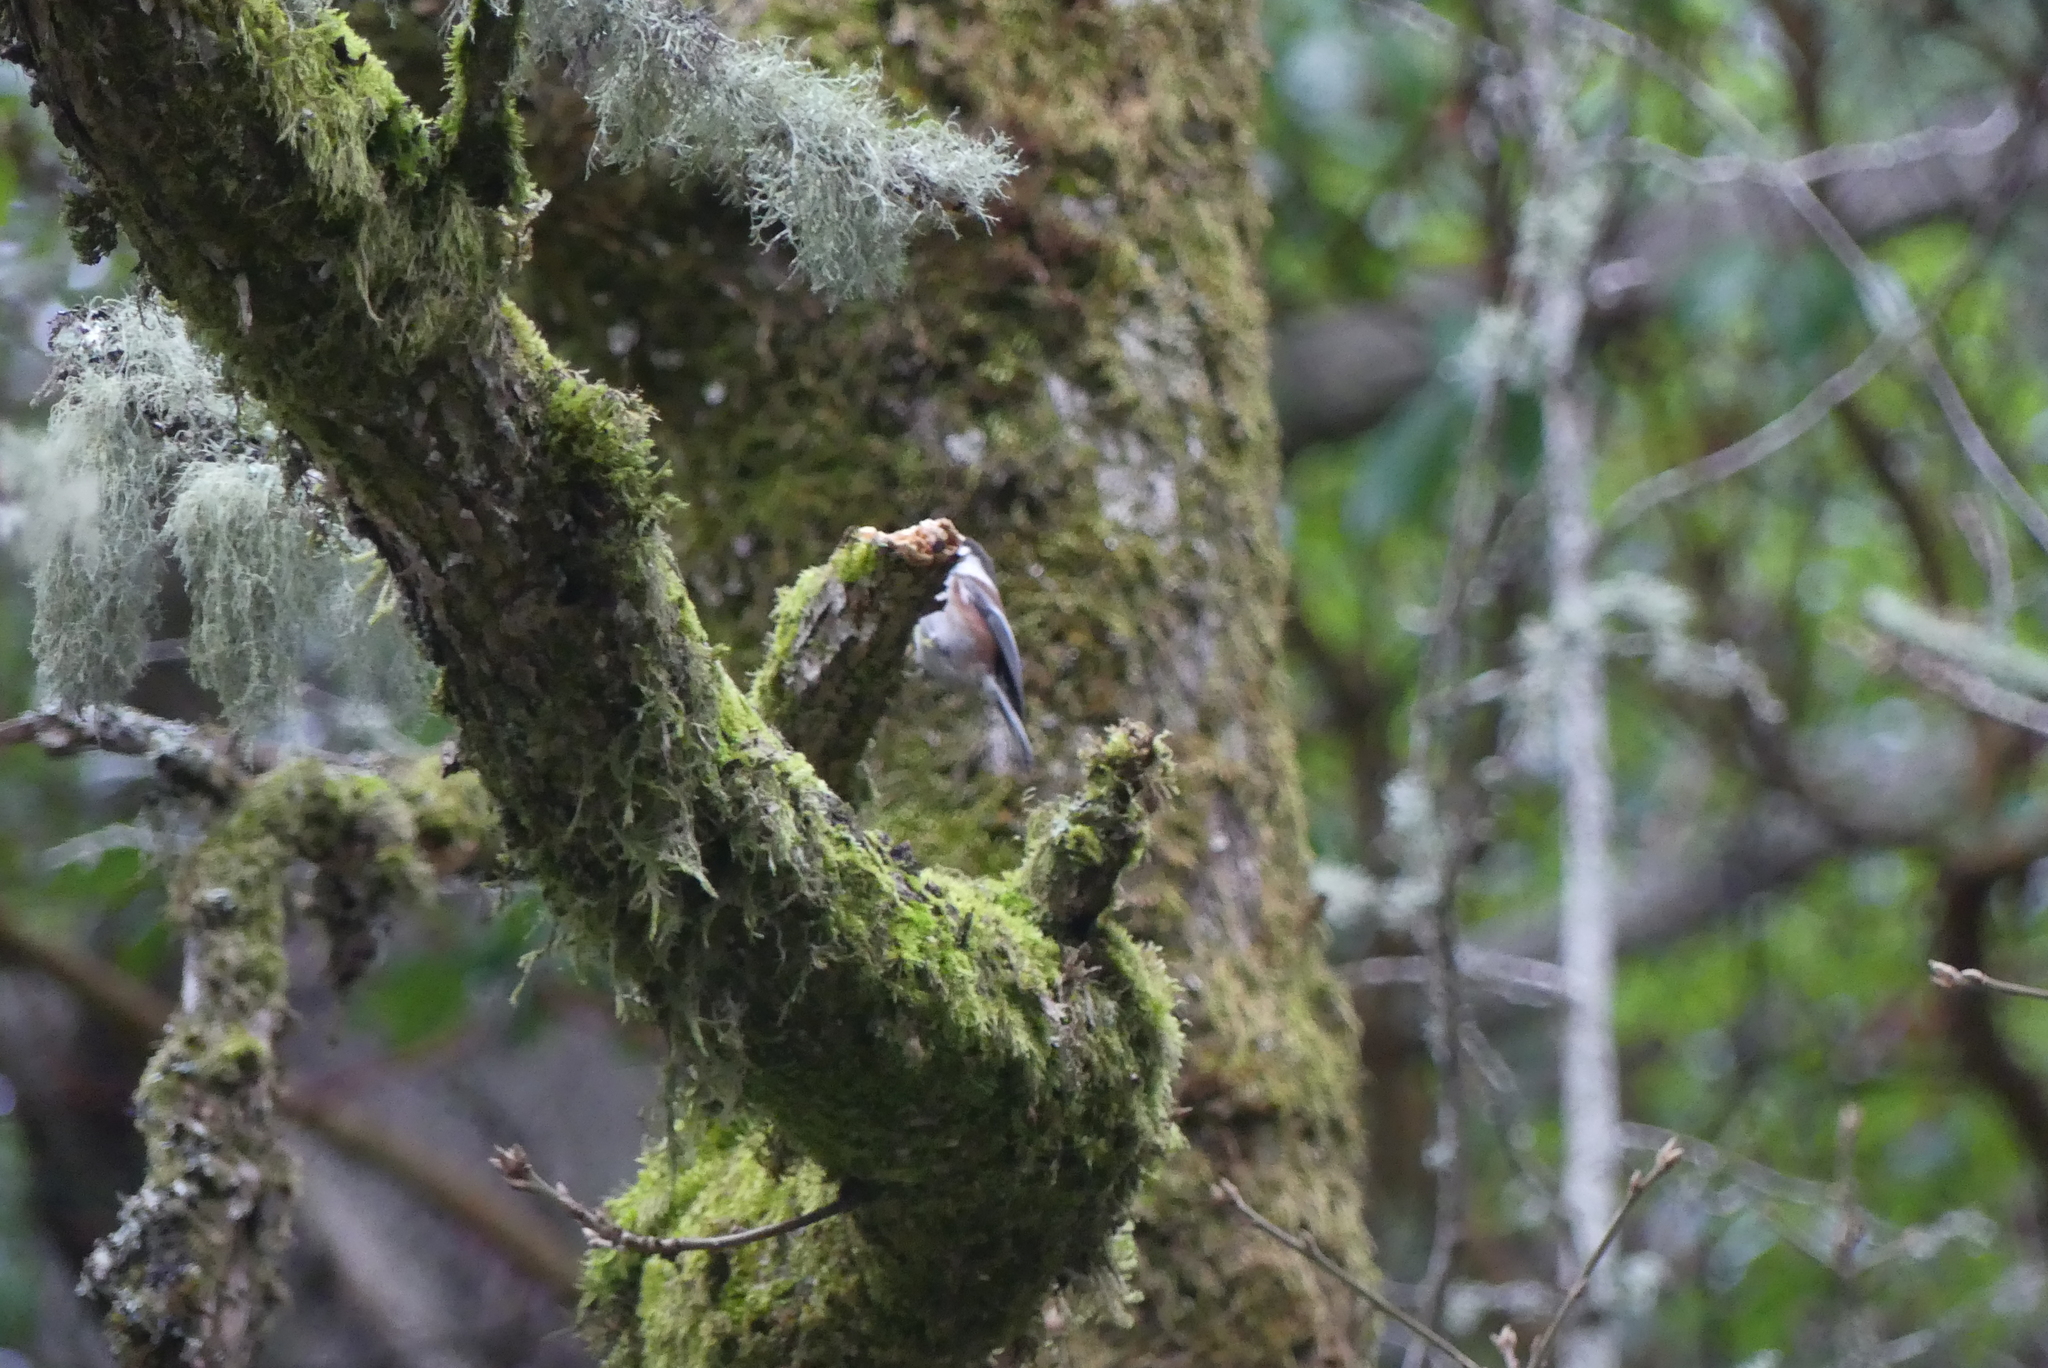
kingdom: Animalia
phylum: Chordata
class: Aves
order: Passeriformes
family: Paridae
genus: Poecile
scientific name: Poecile rufescens
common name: Chestnut-backed chickadee
